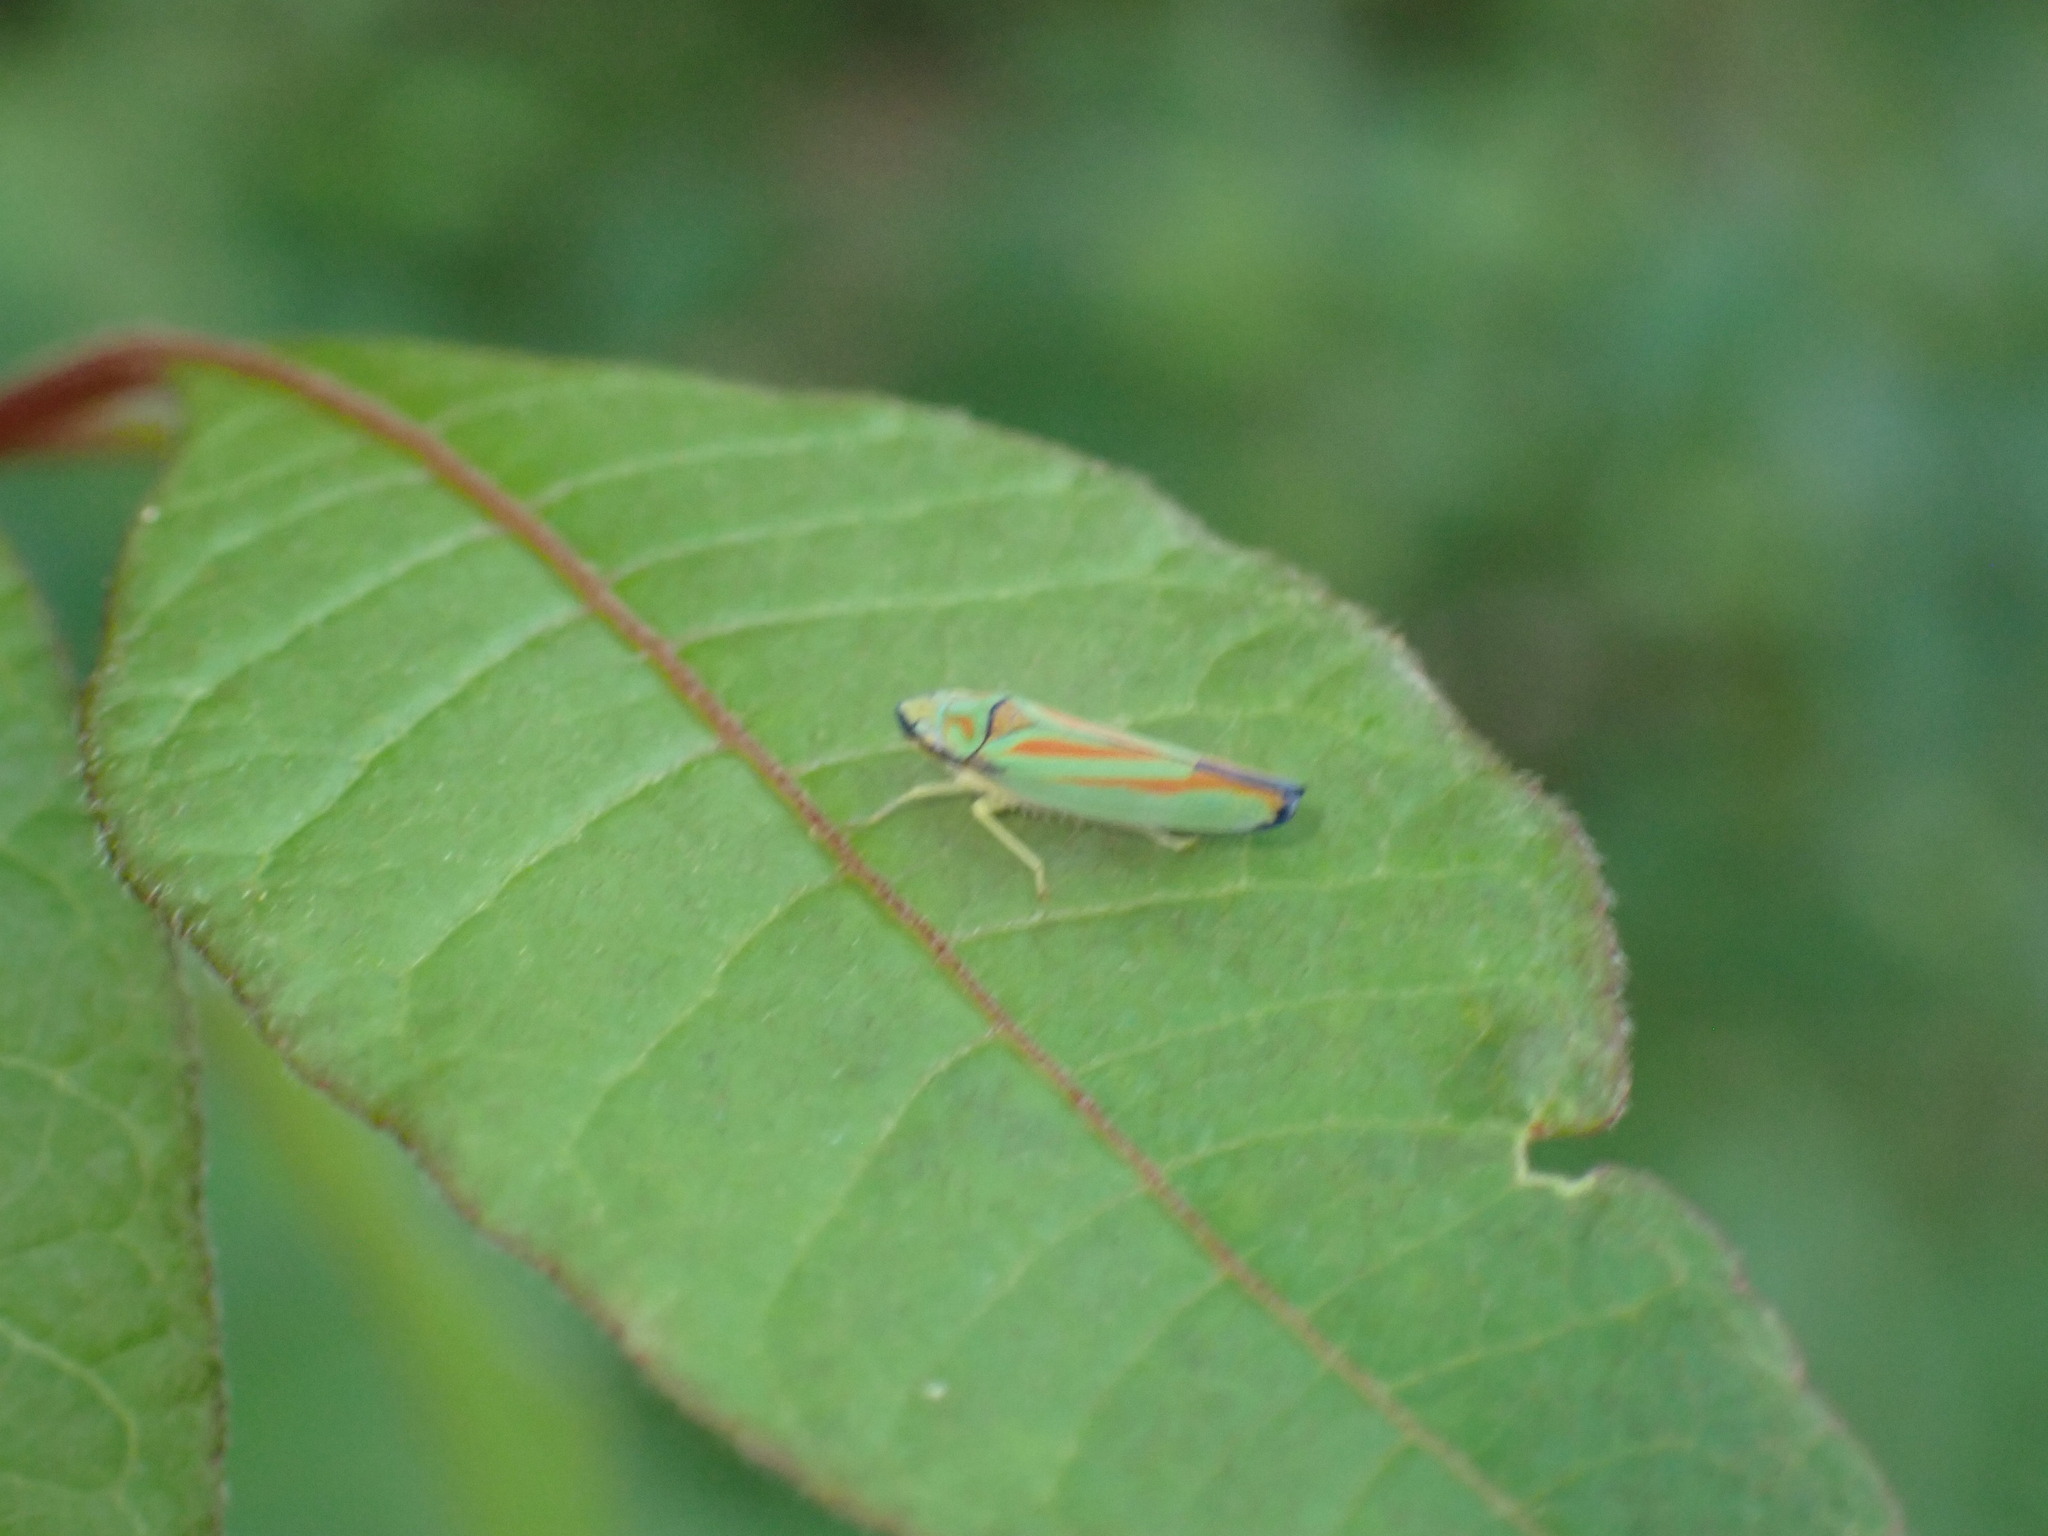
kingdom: Animalia
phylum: Arthropoda
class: Insecta
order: Hemiptera
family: Cicadellidae
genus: Graphocephala
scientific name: Graphocephala fennahi
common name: Rhododendron leafhopper
